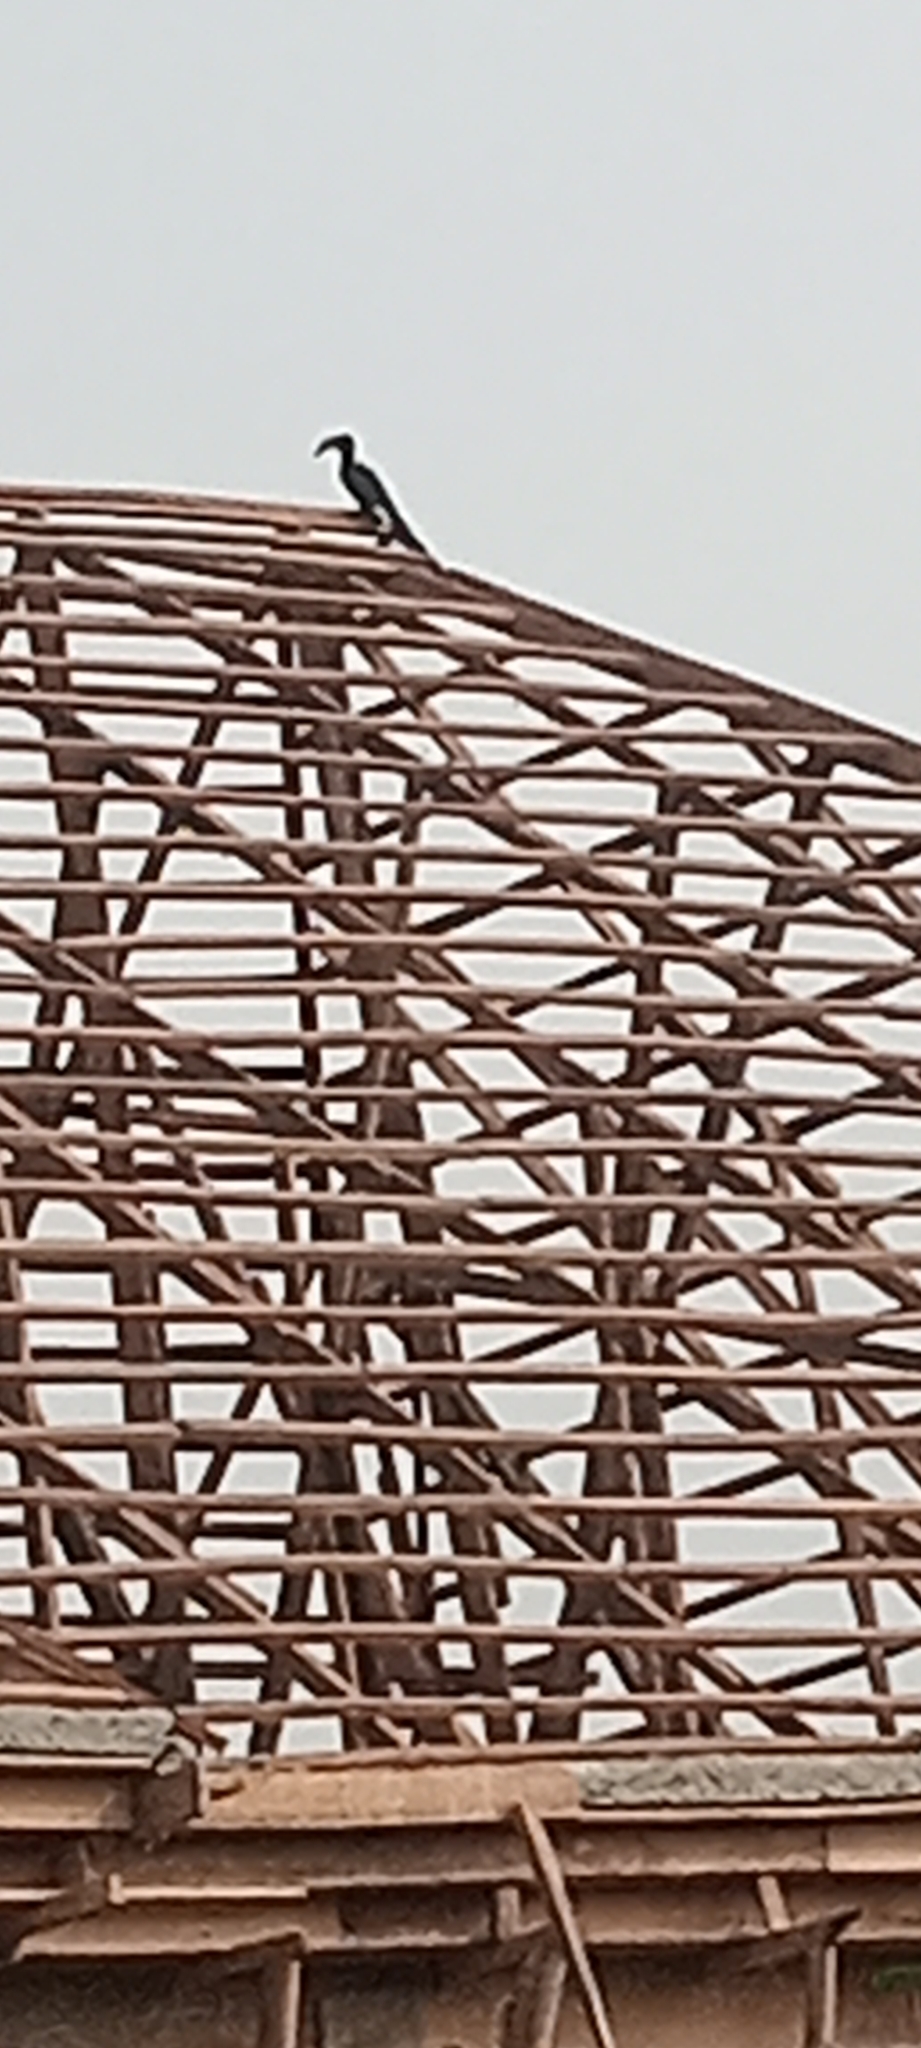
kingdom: Animalia
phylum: Chordata
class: Aves
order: Bucerotiformes
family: Bucerotidae
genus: Lophoceros
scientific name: Lophoceros fasciatus
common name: African pied hornbill
